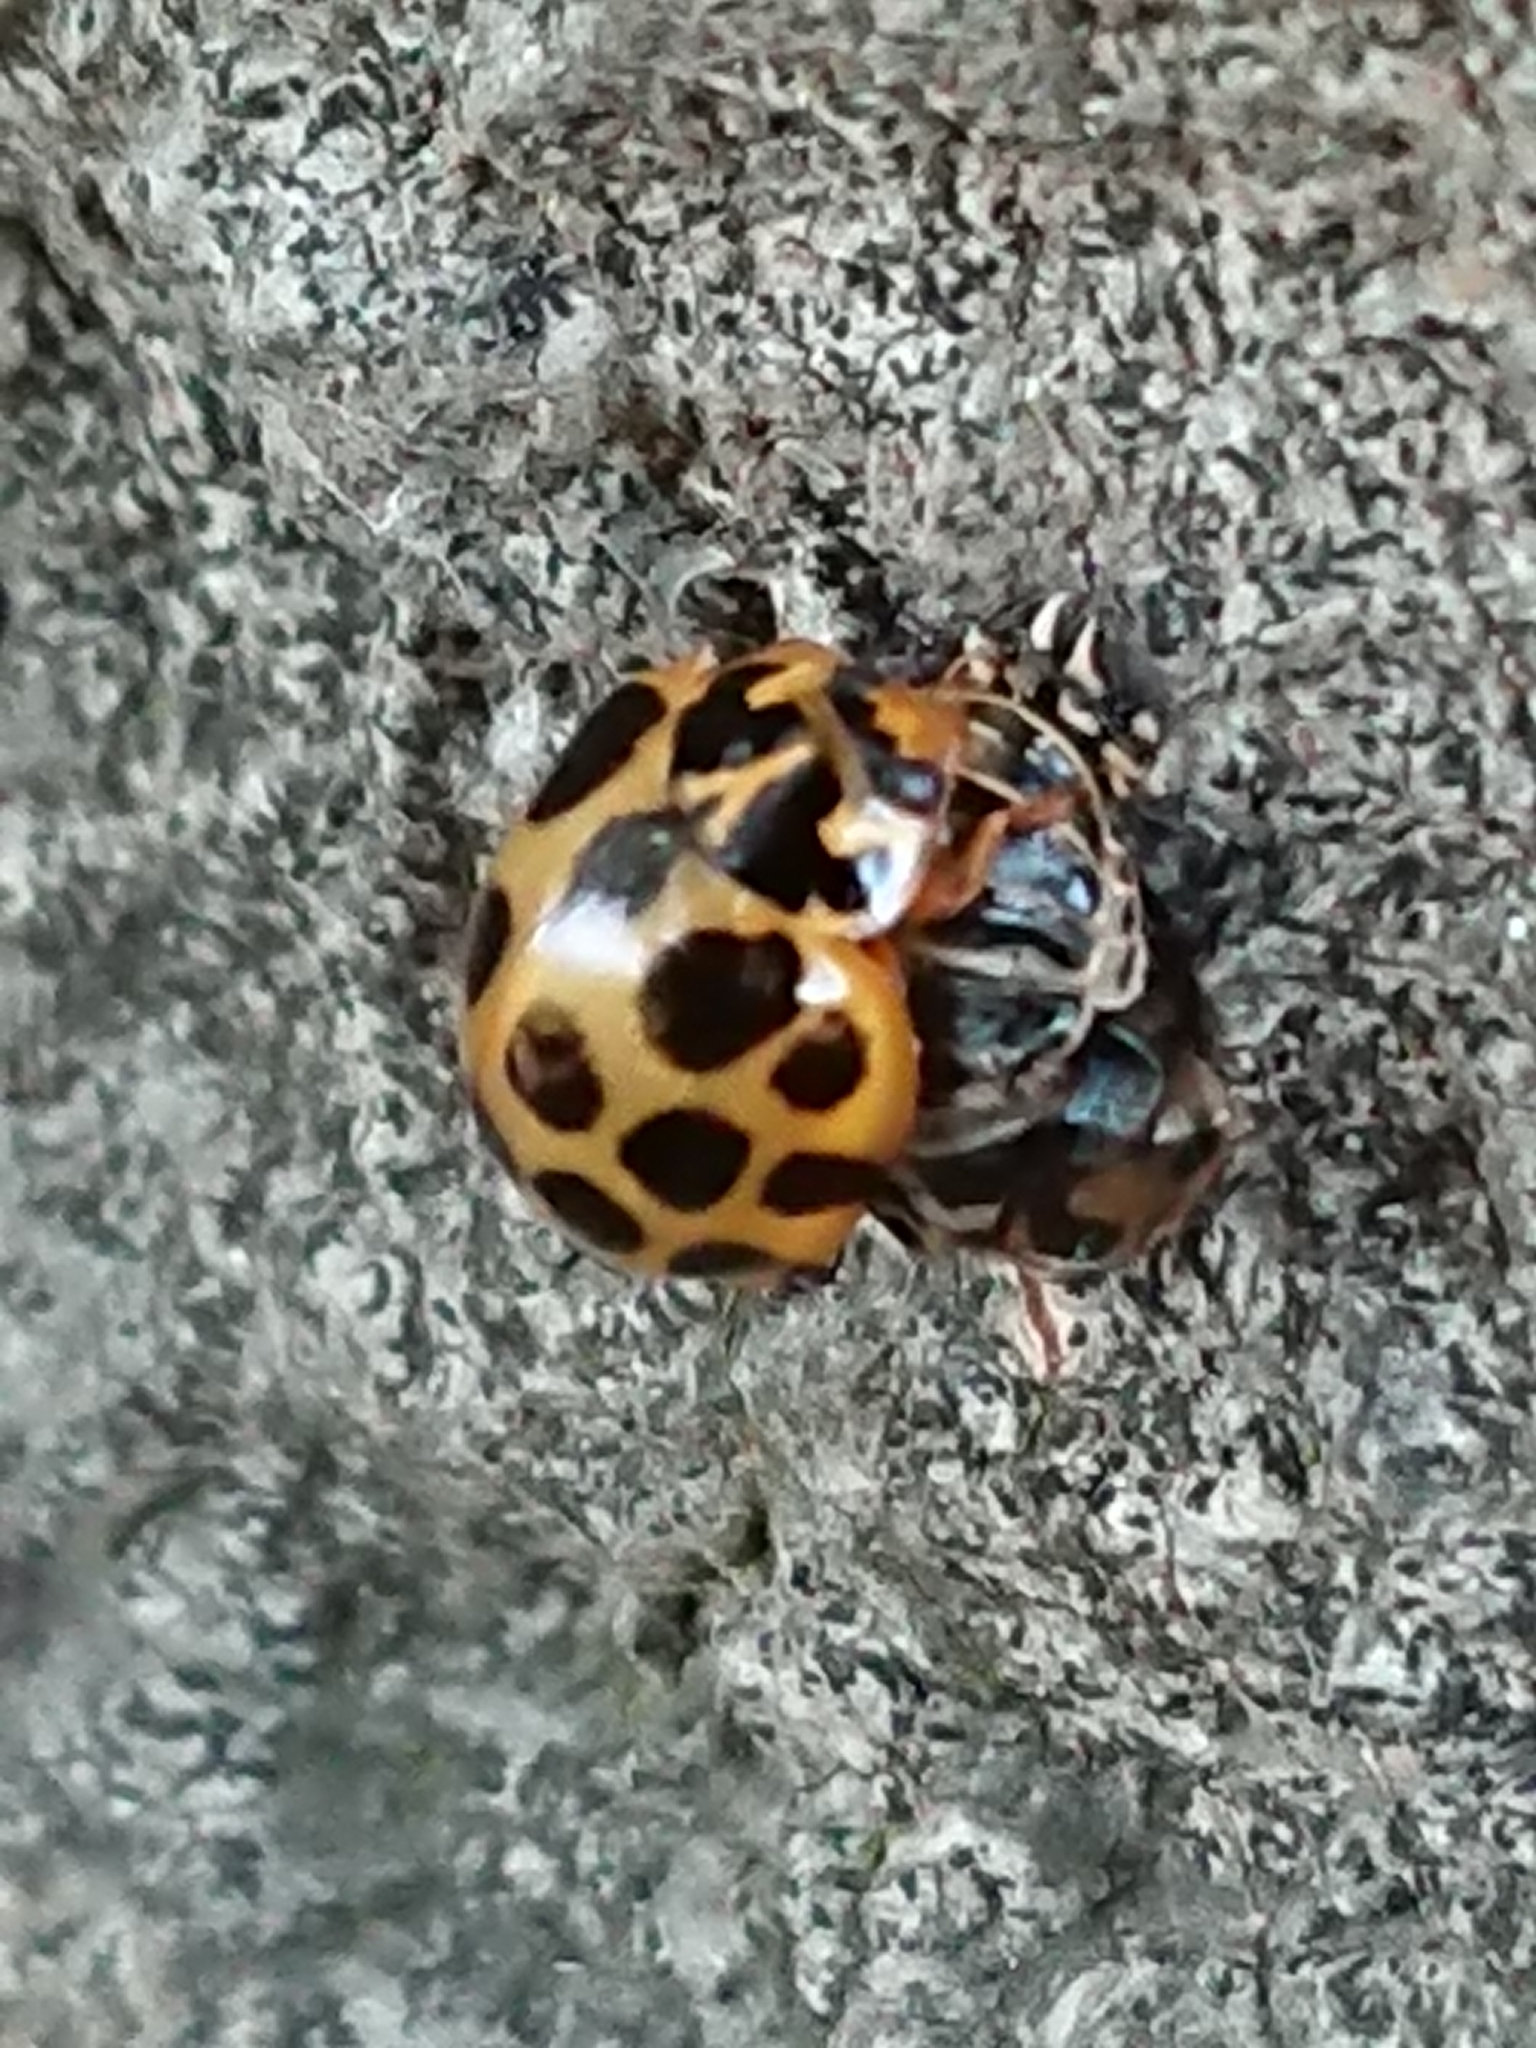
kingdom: Animalia
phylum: Arthropoda
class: Insecta
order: Coleoptera
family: Coccinellidae
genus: Harmonia
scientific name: Harmonia conformis
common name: Common spotted ladybird beetle
